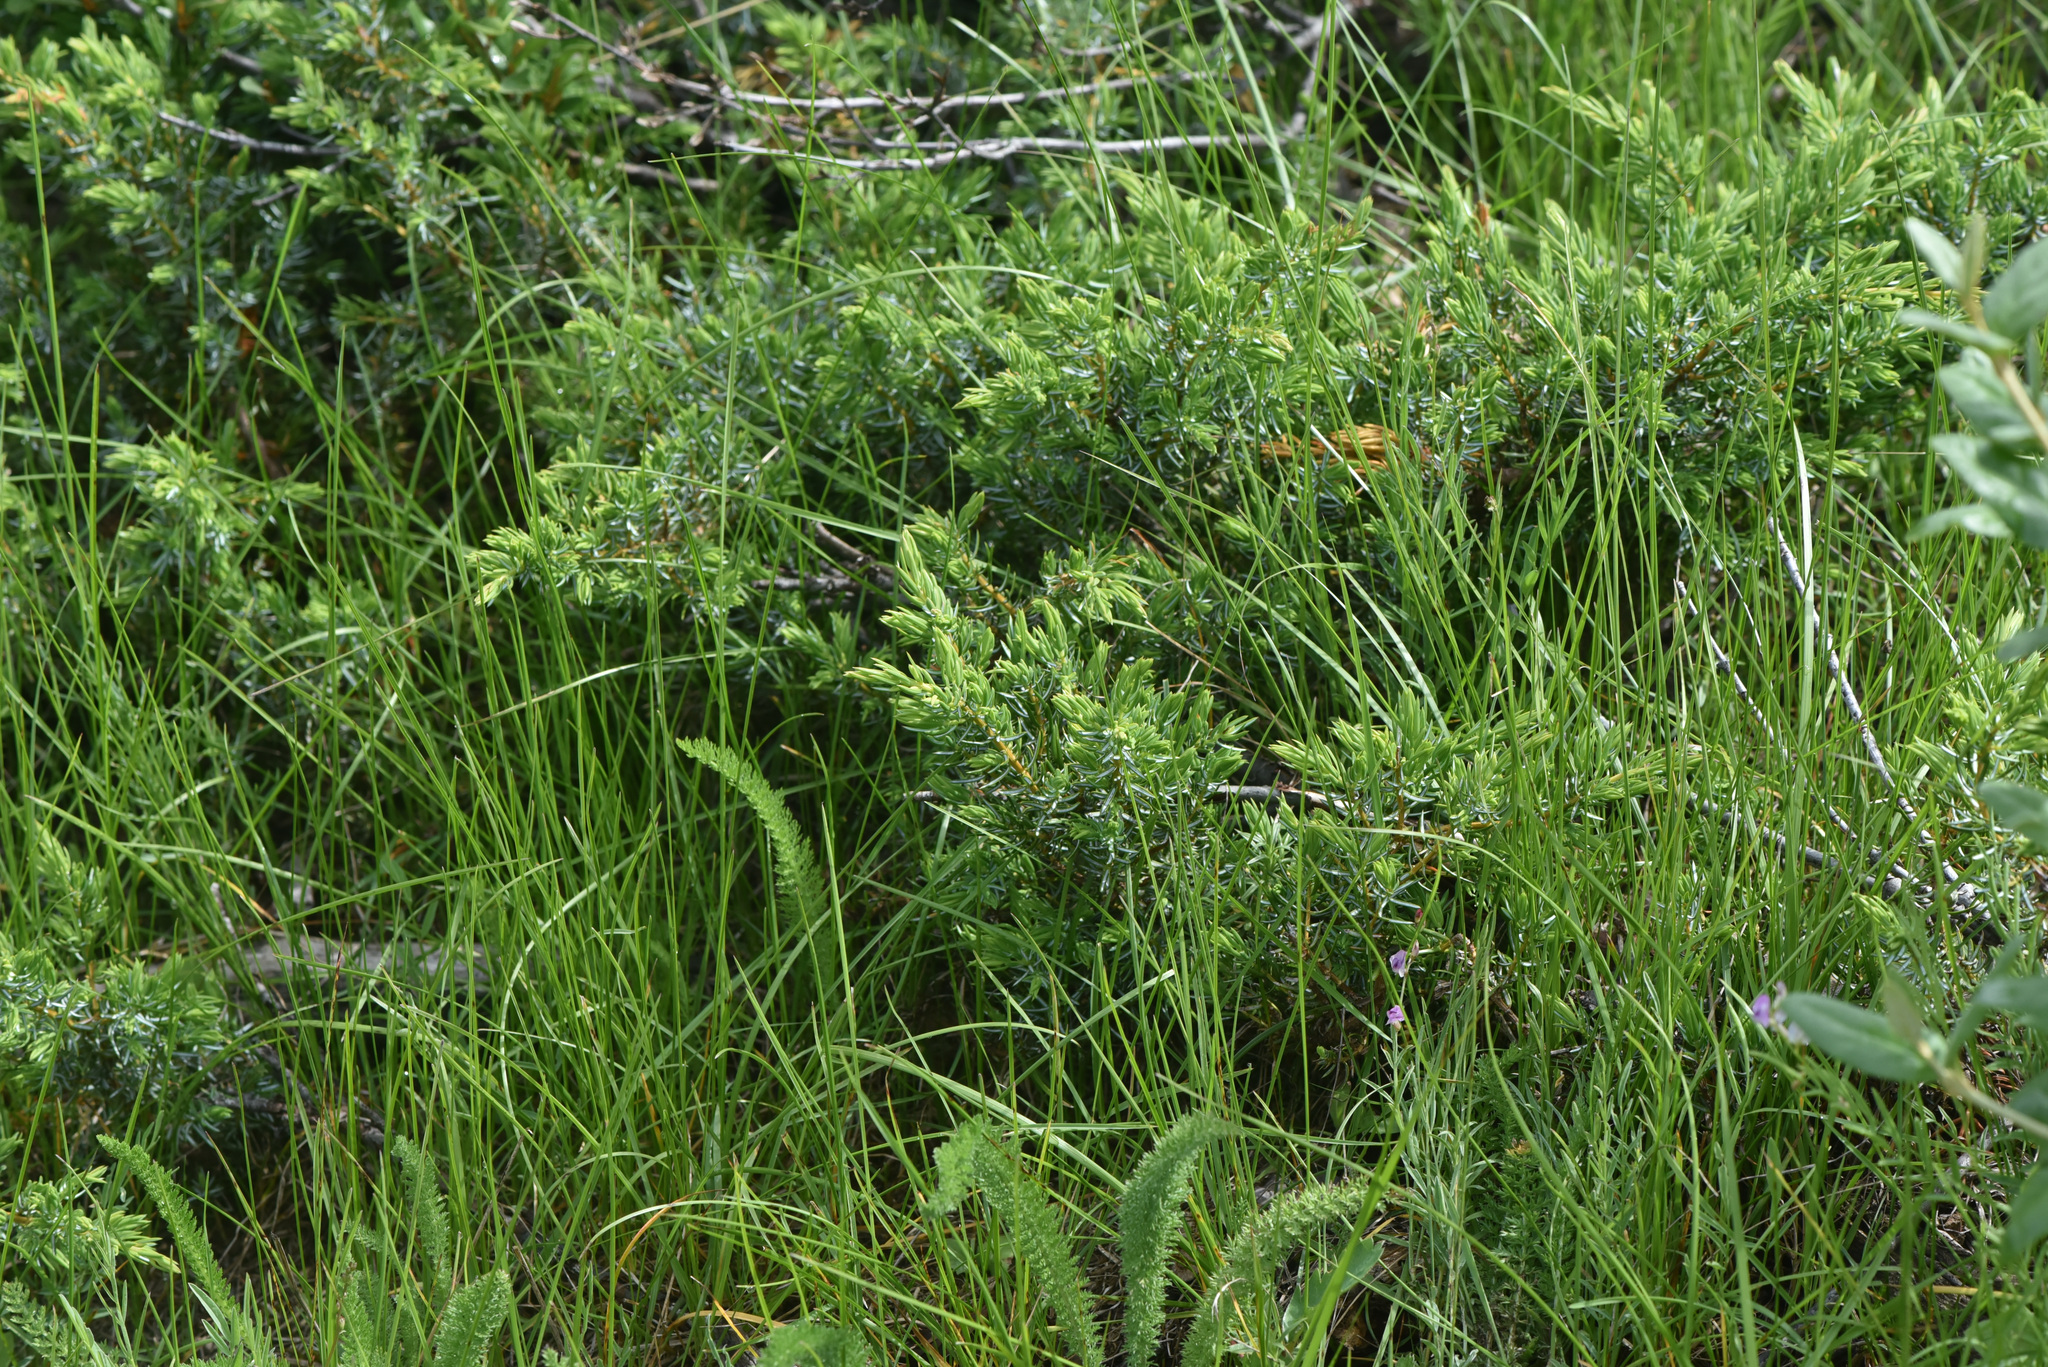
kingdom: Plantae
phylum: Tracheophyta
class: Pinopsida
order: Pinales
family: Cupressaceae
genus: Juniperus
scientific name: Juniperus communis
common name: Common juniper
